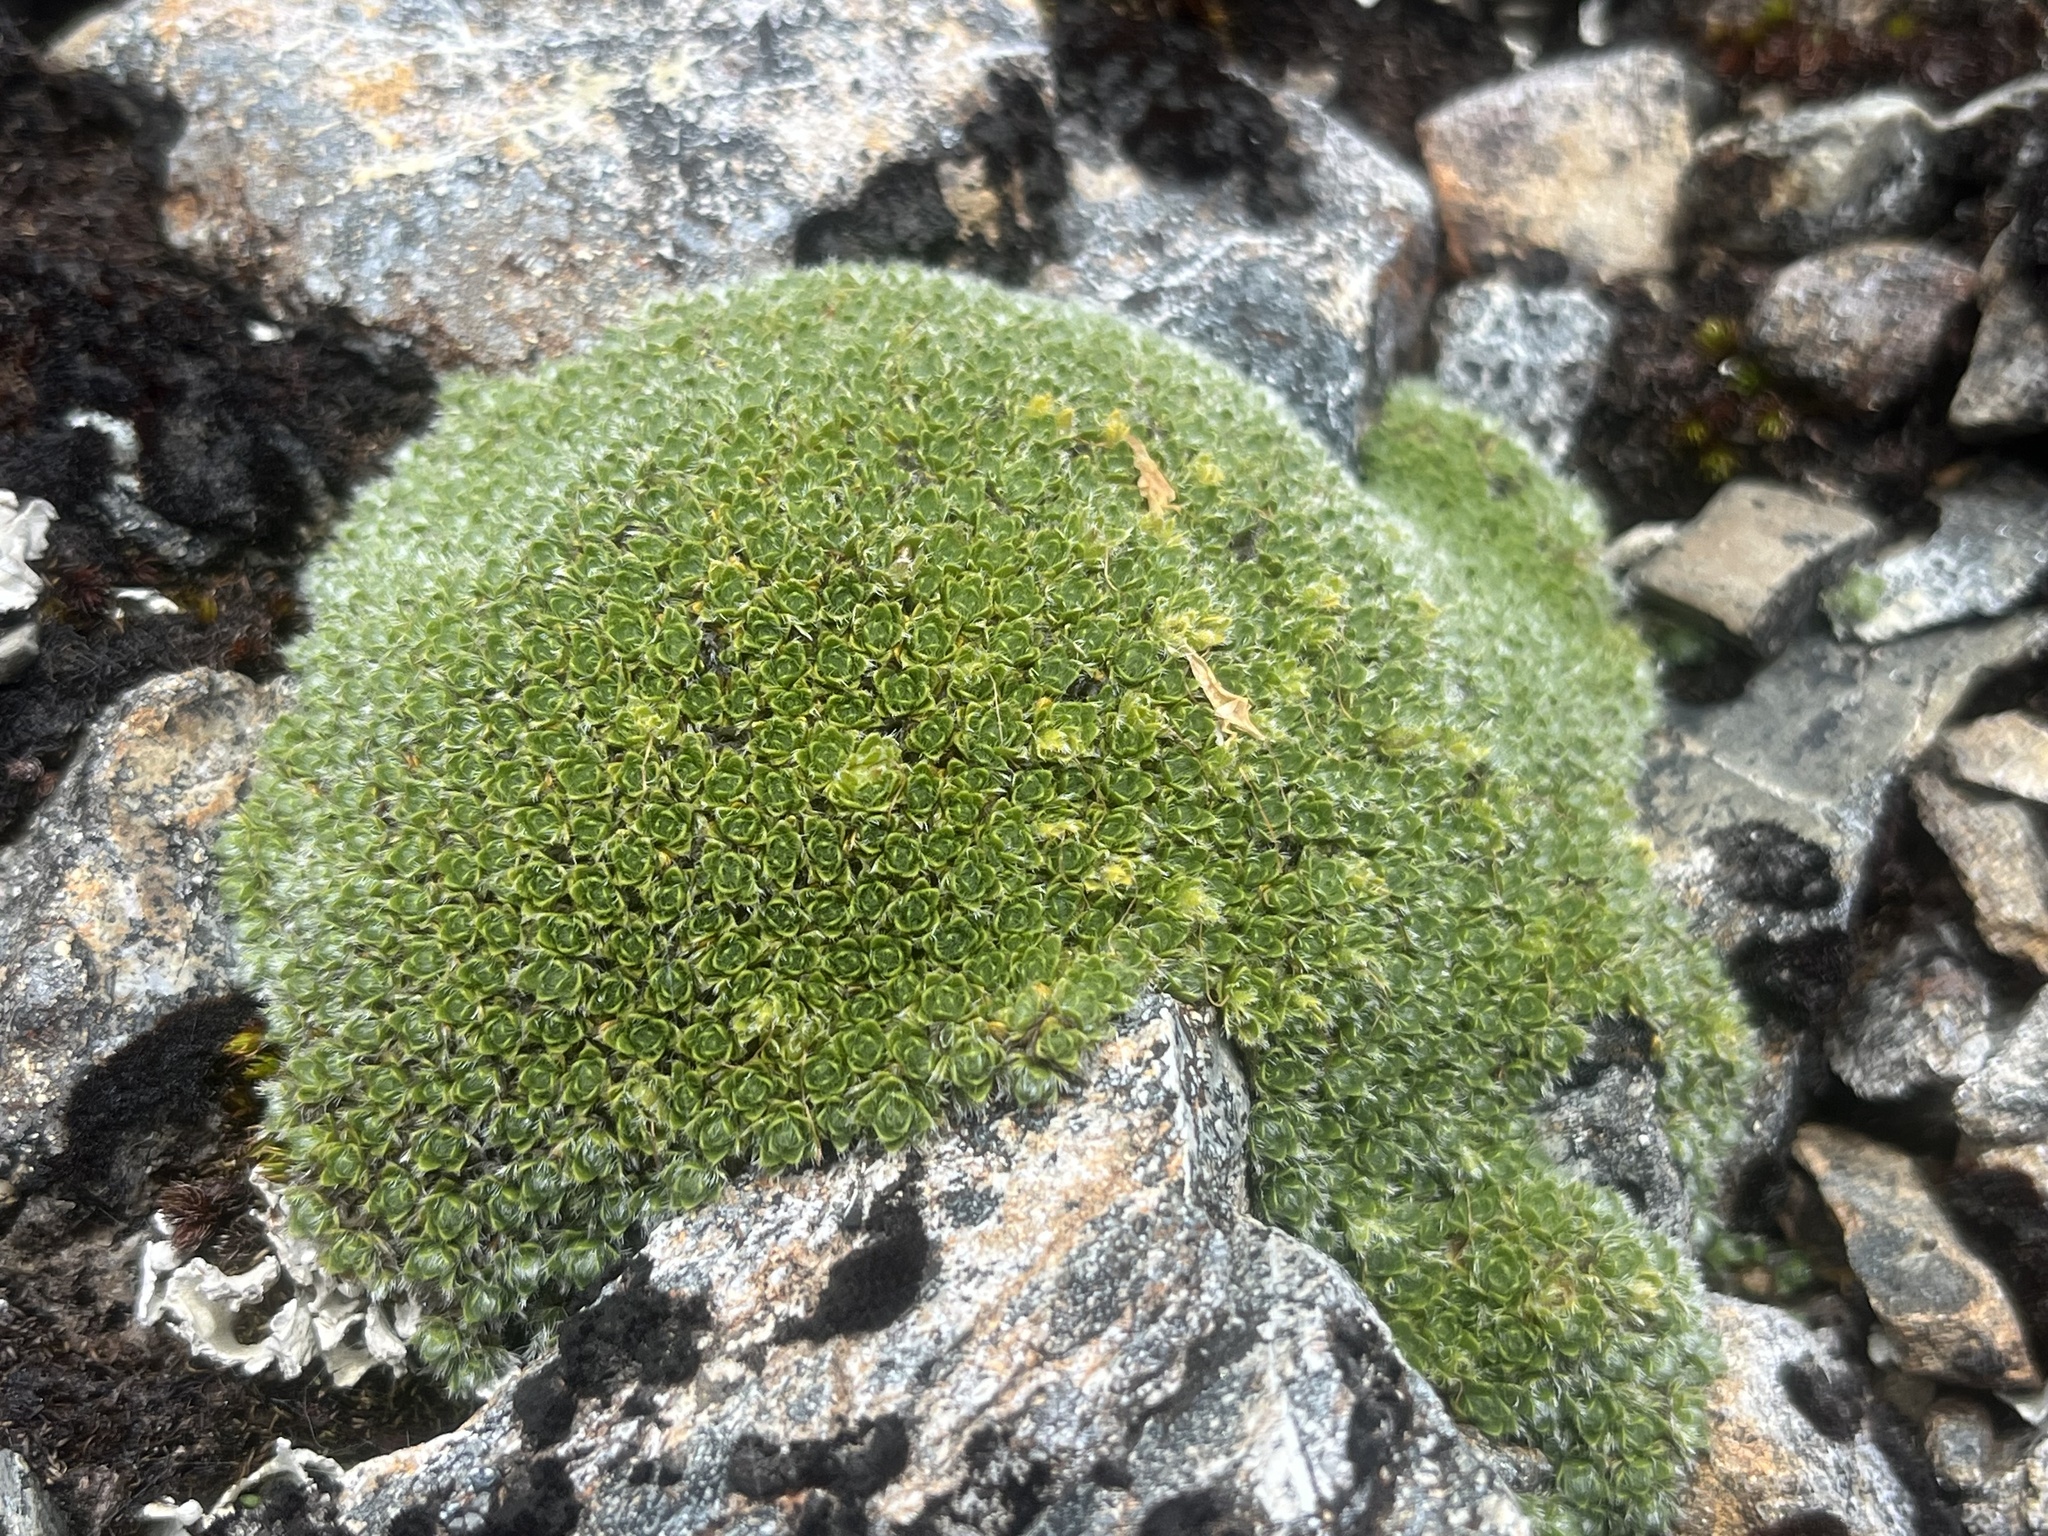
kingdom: Plantae
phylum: Tracheophyta
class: Magnoliopsida
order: Lamiales
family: Plantaginaceae
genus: Veronica
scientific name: Veronica pulvinaris
